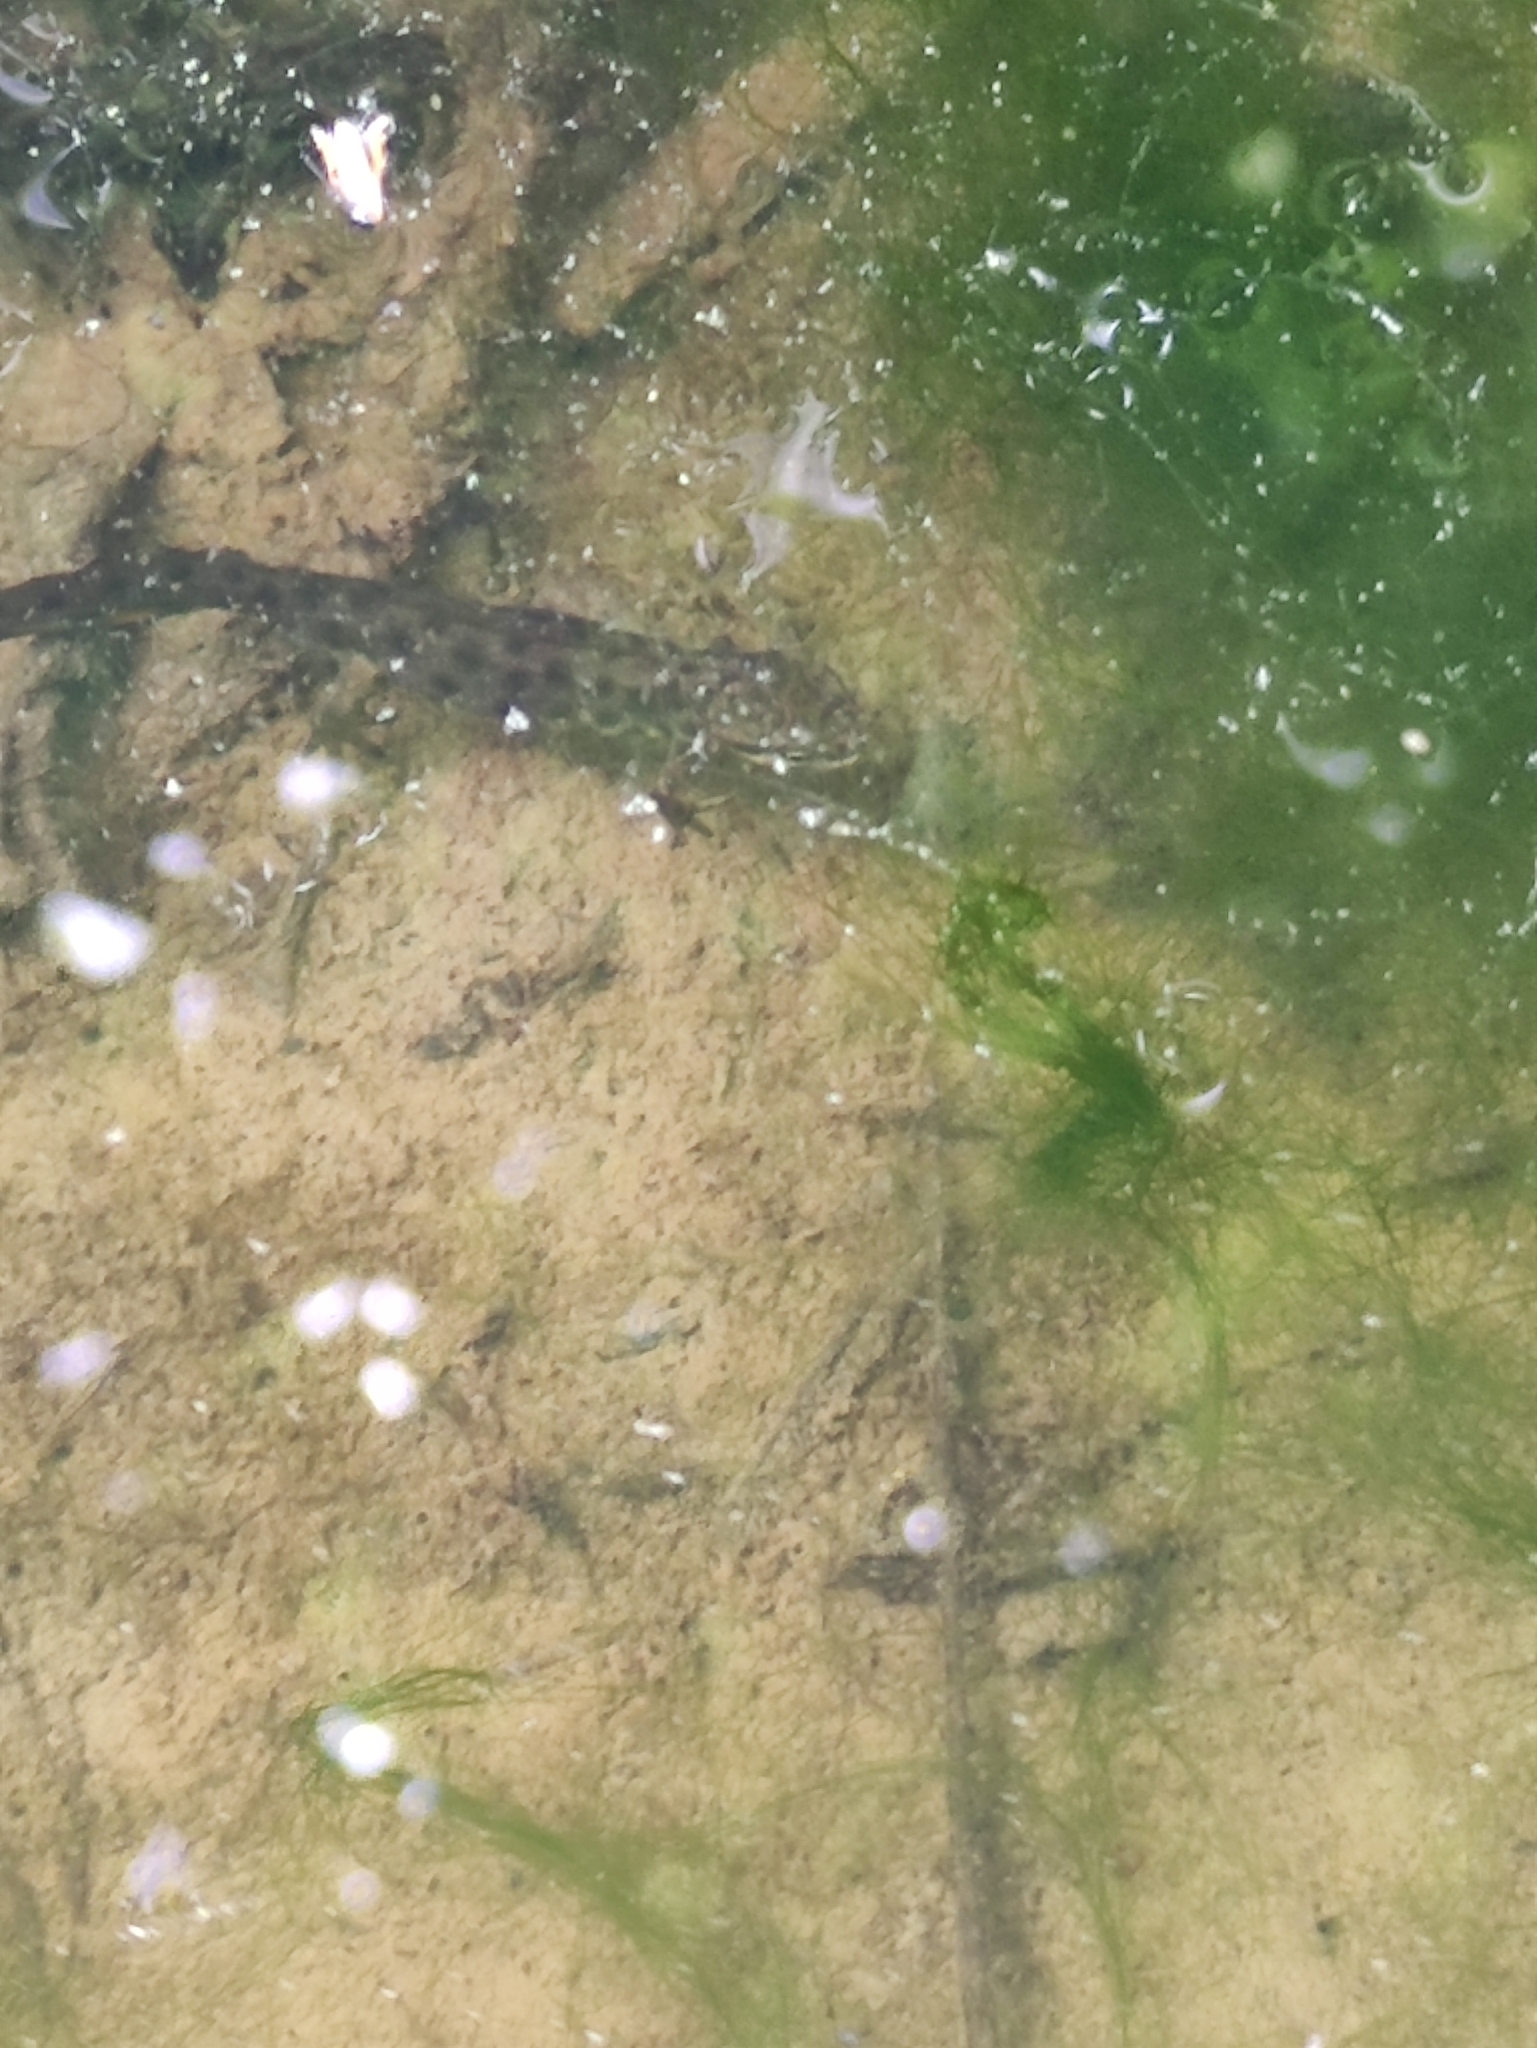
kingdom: Animalia
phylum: Chordata
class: Amphibia
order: Caudata
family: Salamandridae
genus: Lissotriton
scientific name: Lissotriton vulgaris
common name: Smooth newt
